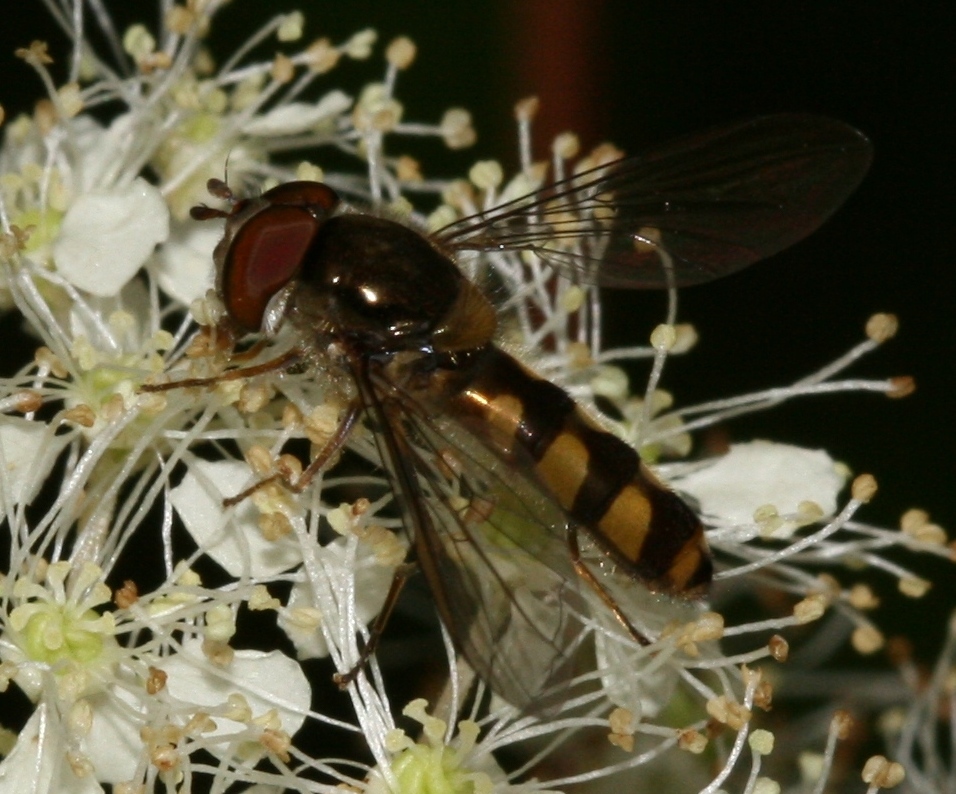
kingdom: Animalia
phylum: Arthropoda
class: Insecta
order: Diptera
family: Syrphidae
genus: Meliscaeva
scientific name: Meliscaeva auricollis
